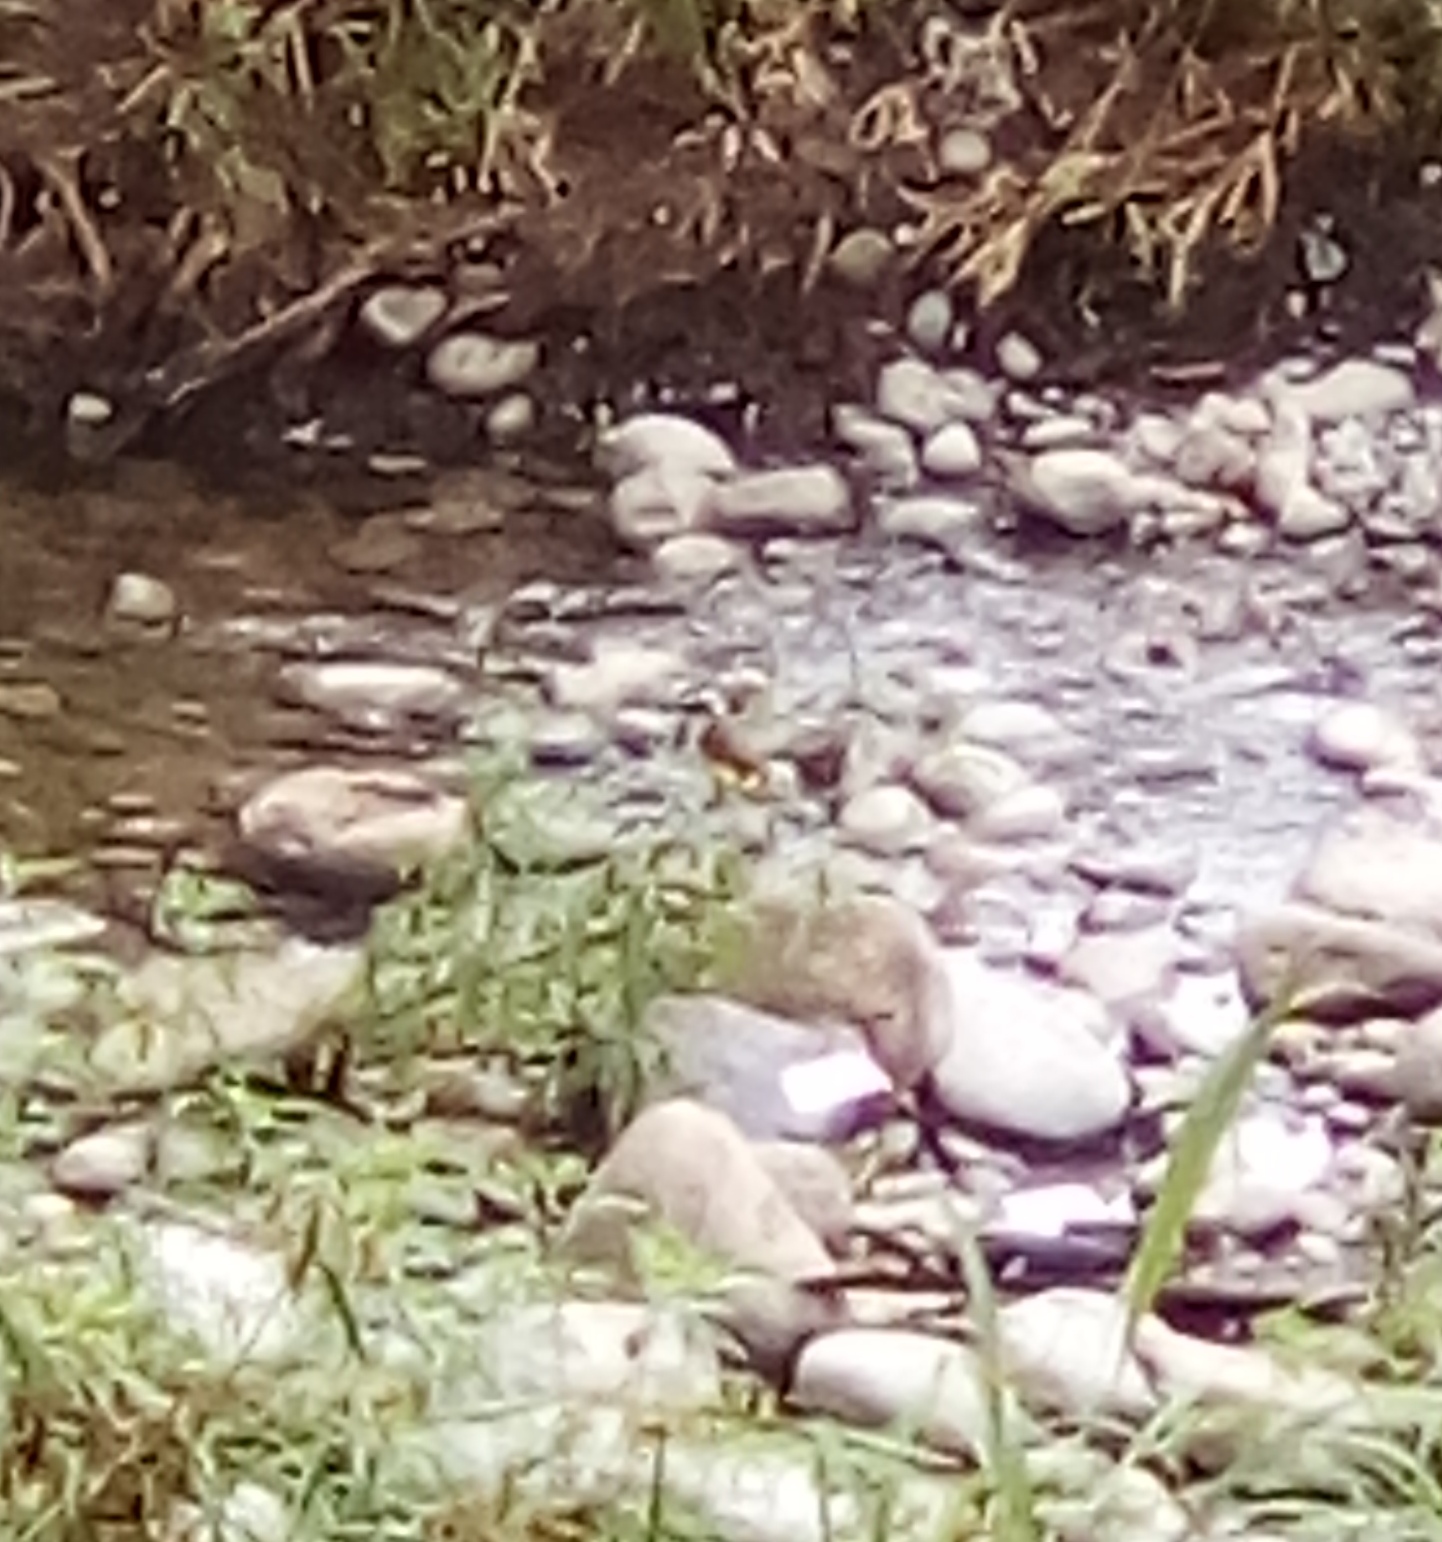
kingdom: Animalia
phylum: Chordata
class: Aves
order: Passeriformes
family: Tyrannidae
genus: Pitangus
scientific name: Pitangus sulphuratus
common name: Great kiskadee
